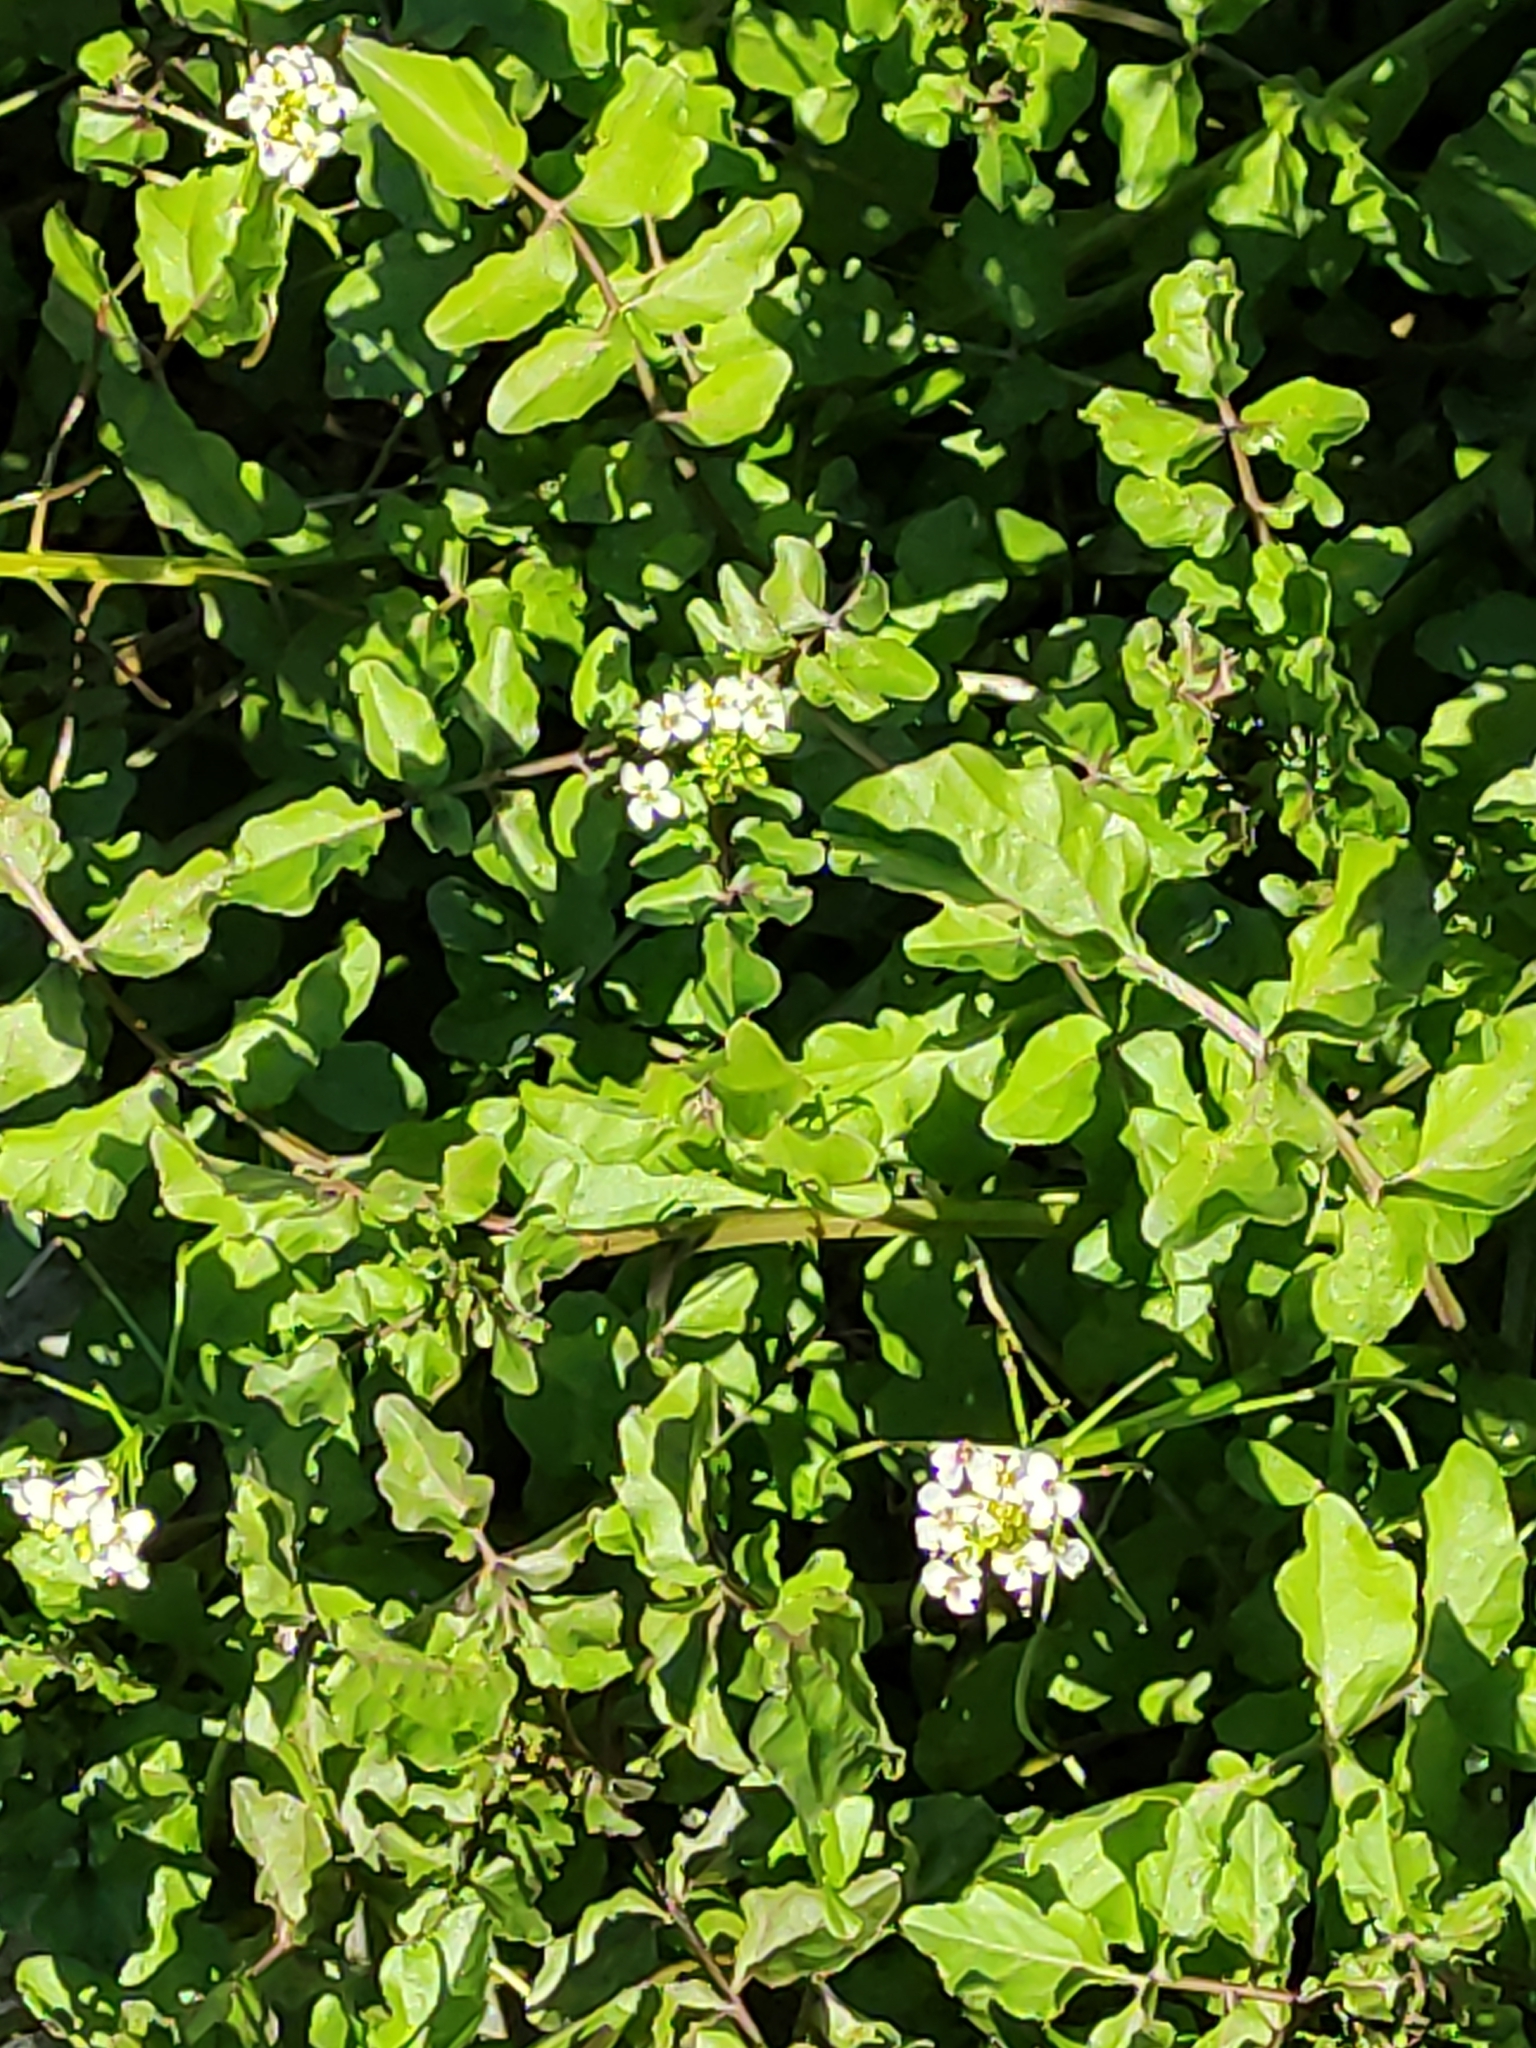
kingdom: Plantae
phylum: Tracheophyta
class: Magnoliopsida
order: Brassicales
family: Brassicaceae
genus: Nasturtium
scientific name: Nasturtium officinale
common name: Watercress
